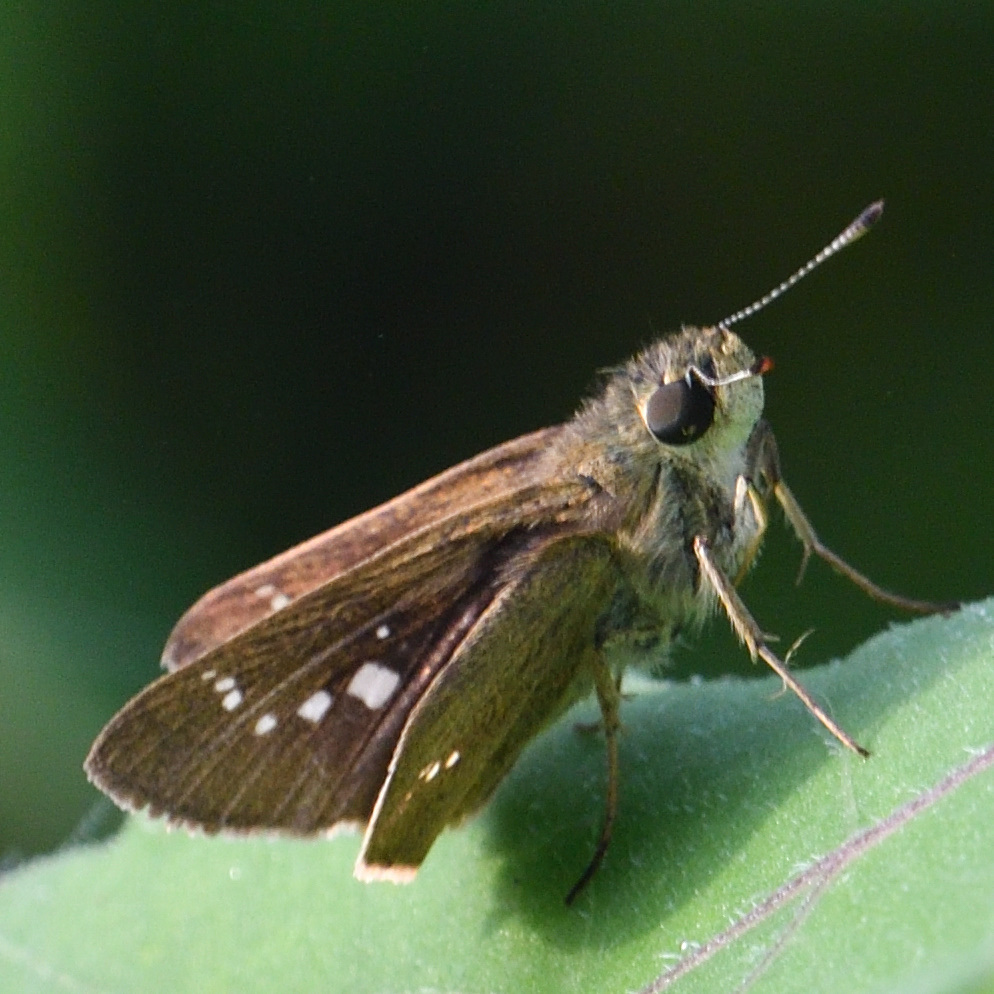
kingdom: Animalia
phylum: Arthropoda
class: Insecta
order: Lepidoptera
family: Hesperiidae
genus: Borbo
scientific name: Borbo cinnara
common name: Formosan swift
